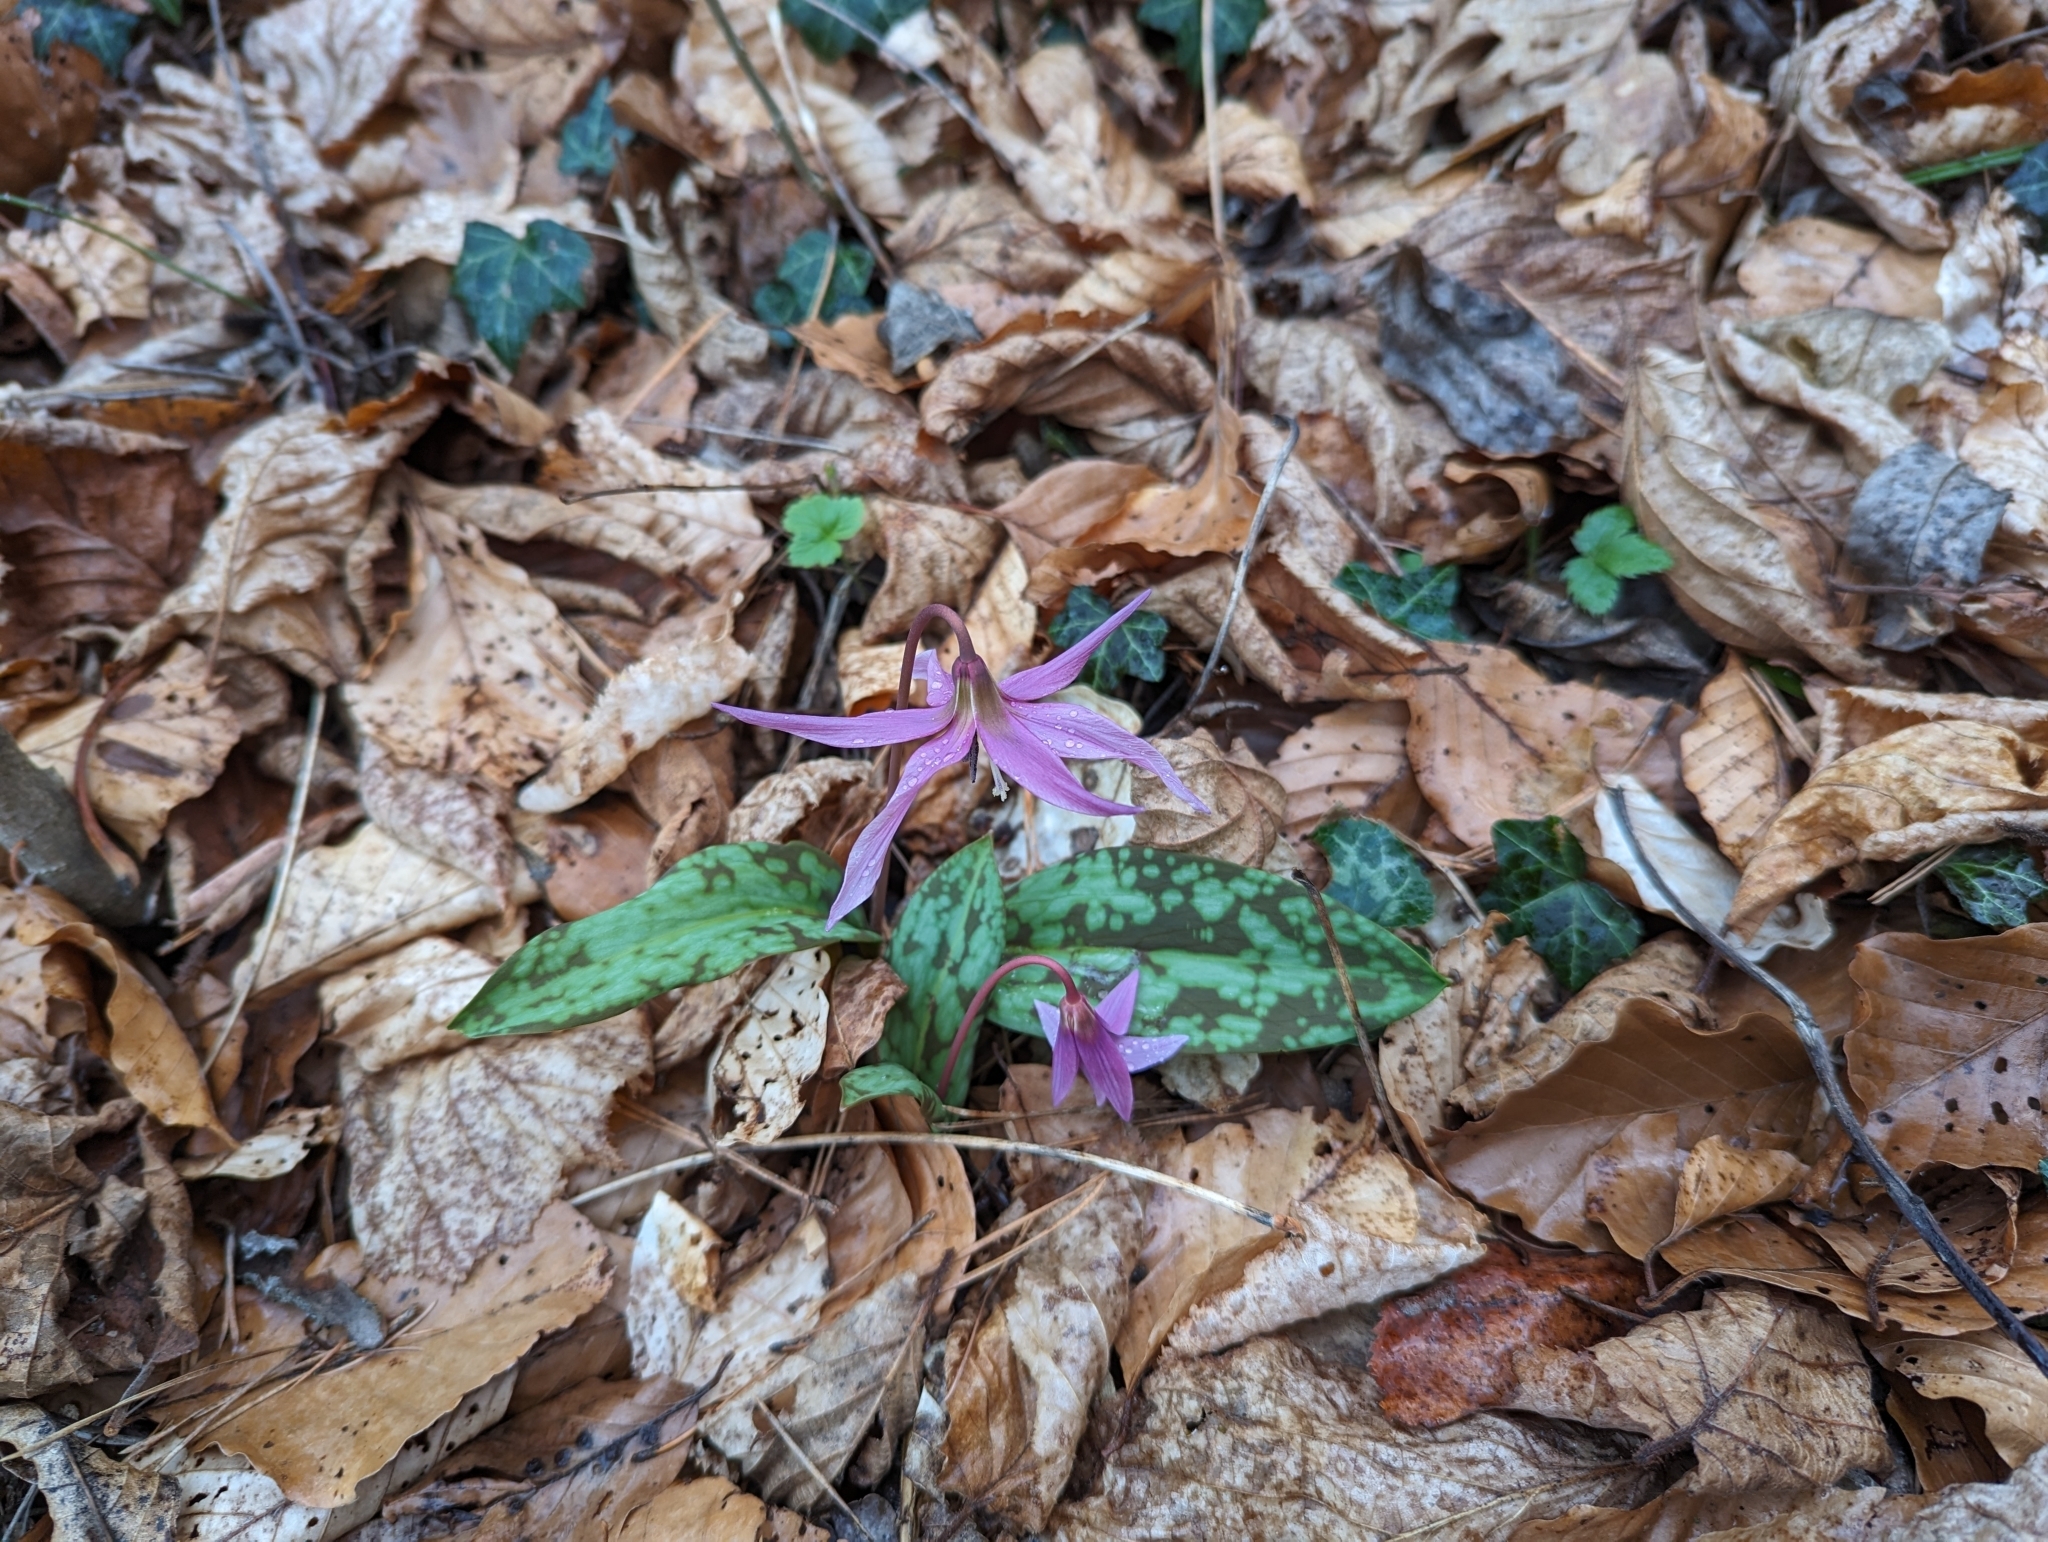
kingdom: Plantae
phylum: Tracheophyta
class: Liliopsida
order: Liliales
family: Liliaceae
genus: Erythronium
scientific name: Erythronium dens-canis
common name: Dog's-tooth-violet
